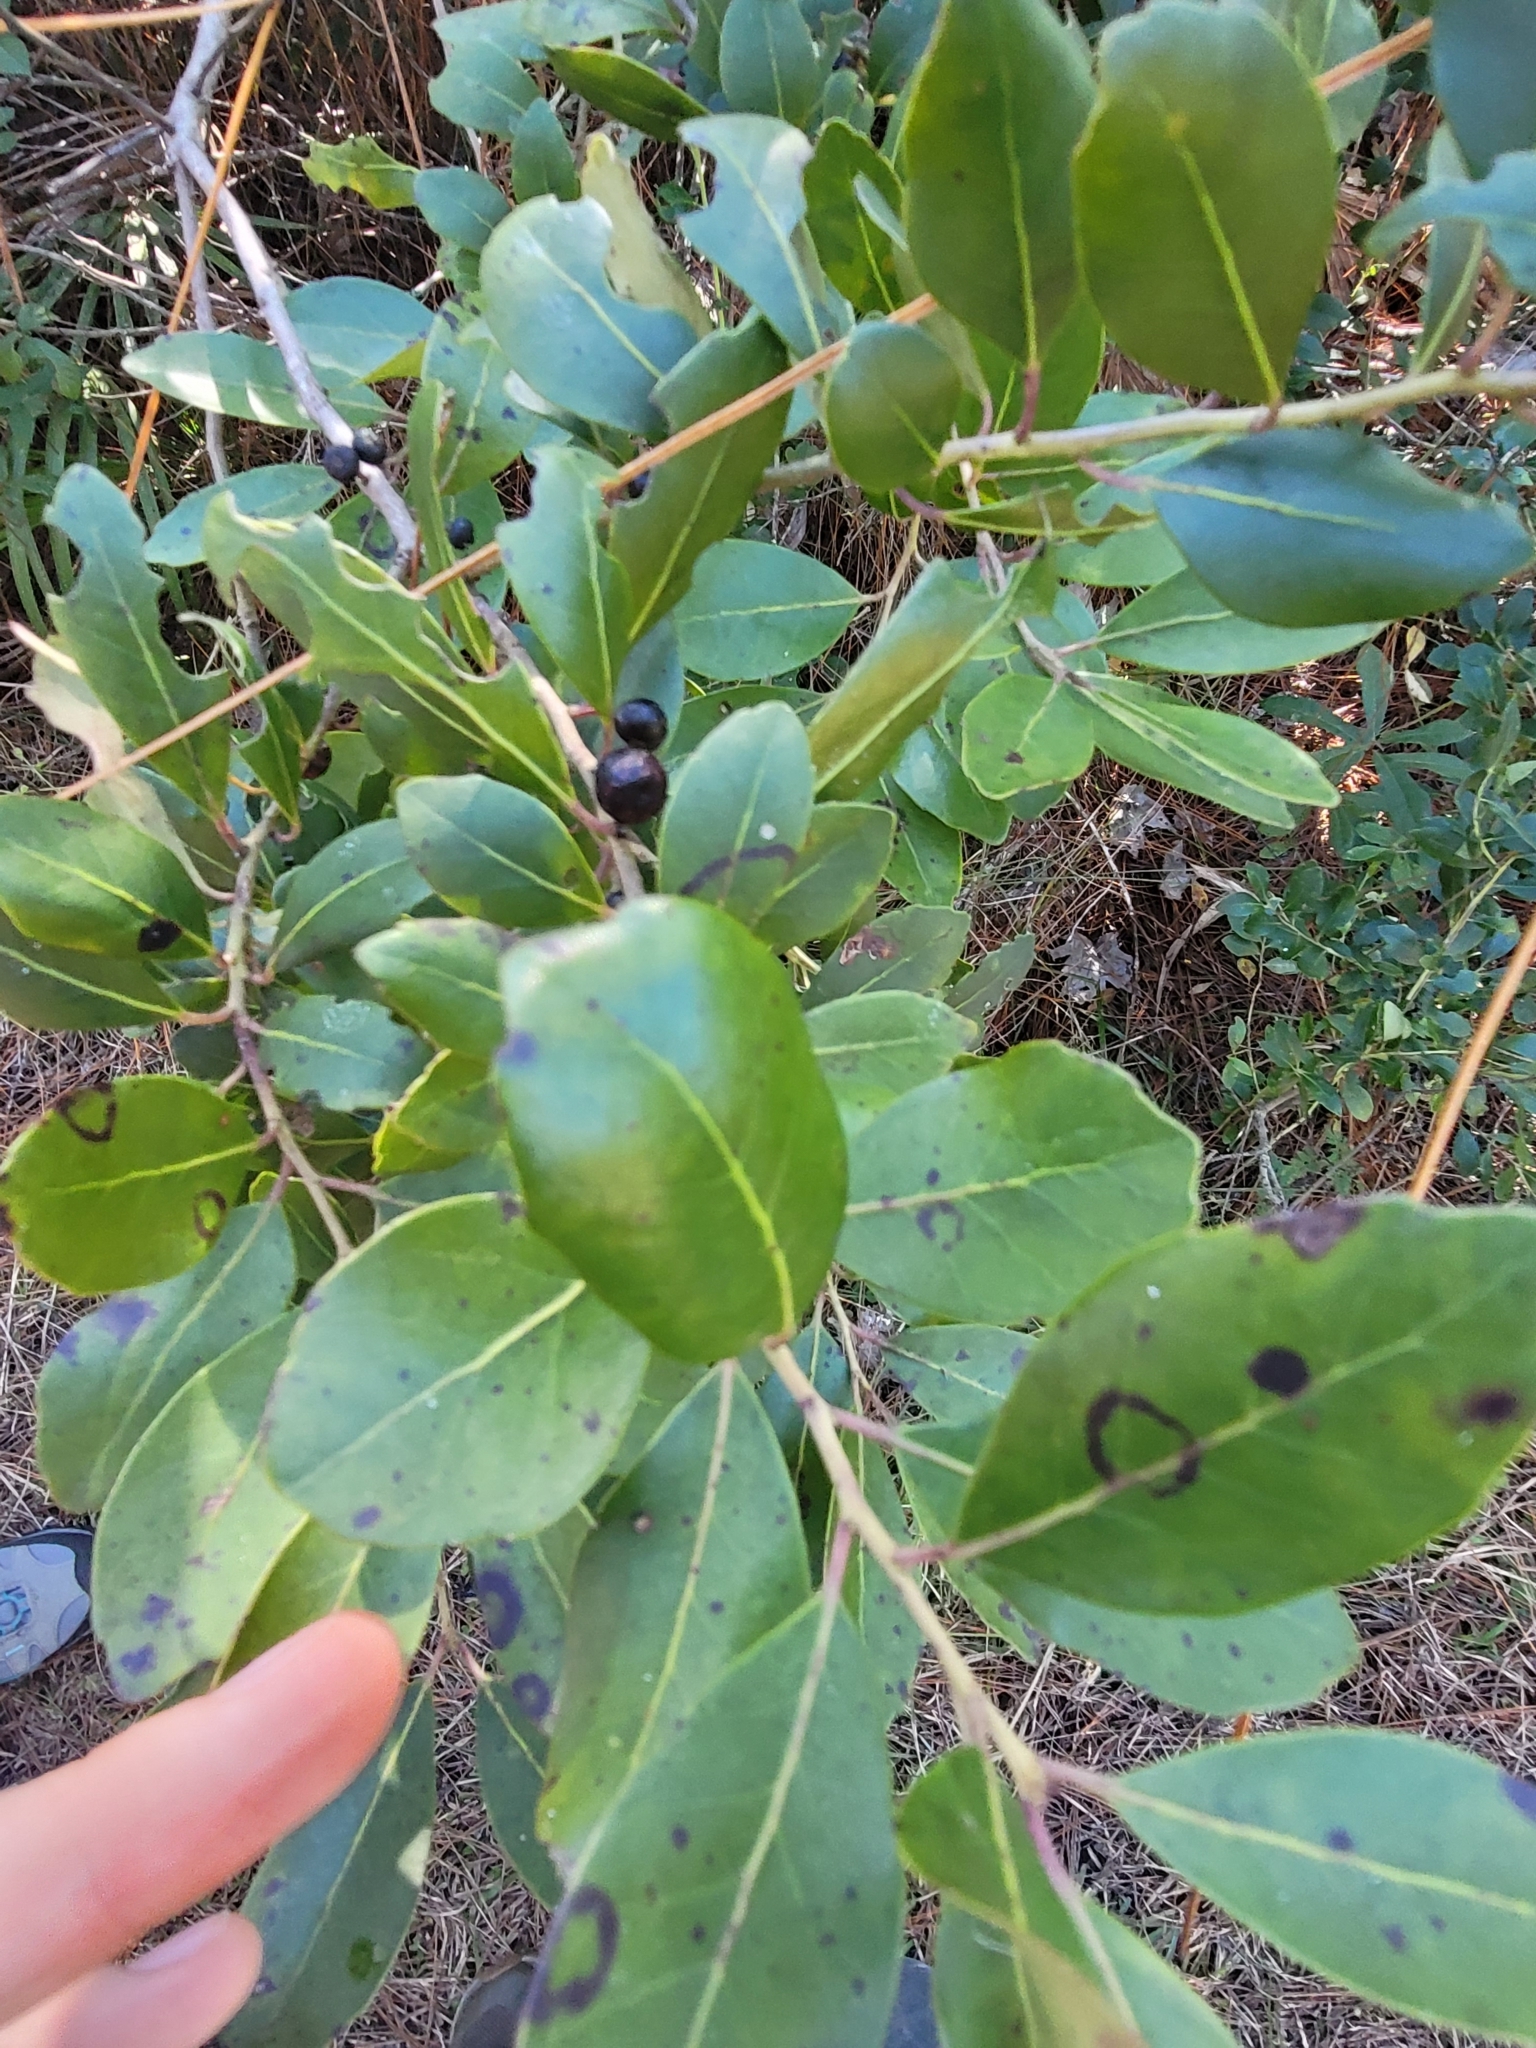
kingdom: Plantae
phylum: Tracheophyta
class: Magnoliopsida
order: Aquifoliales
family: Aquifoliaceae
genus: Ilex
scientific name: Ilex glabra
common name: Bitter gallberry
